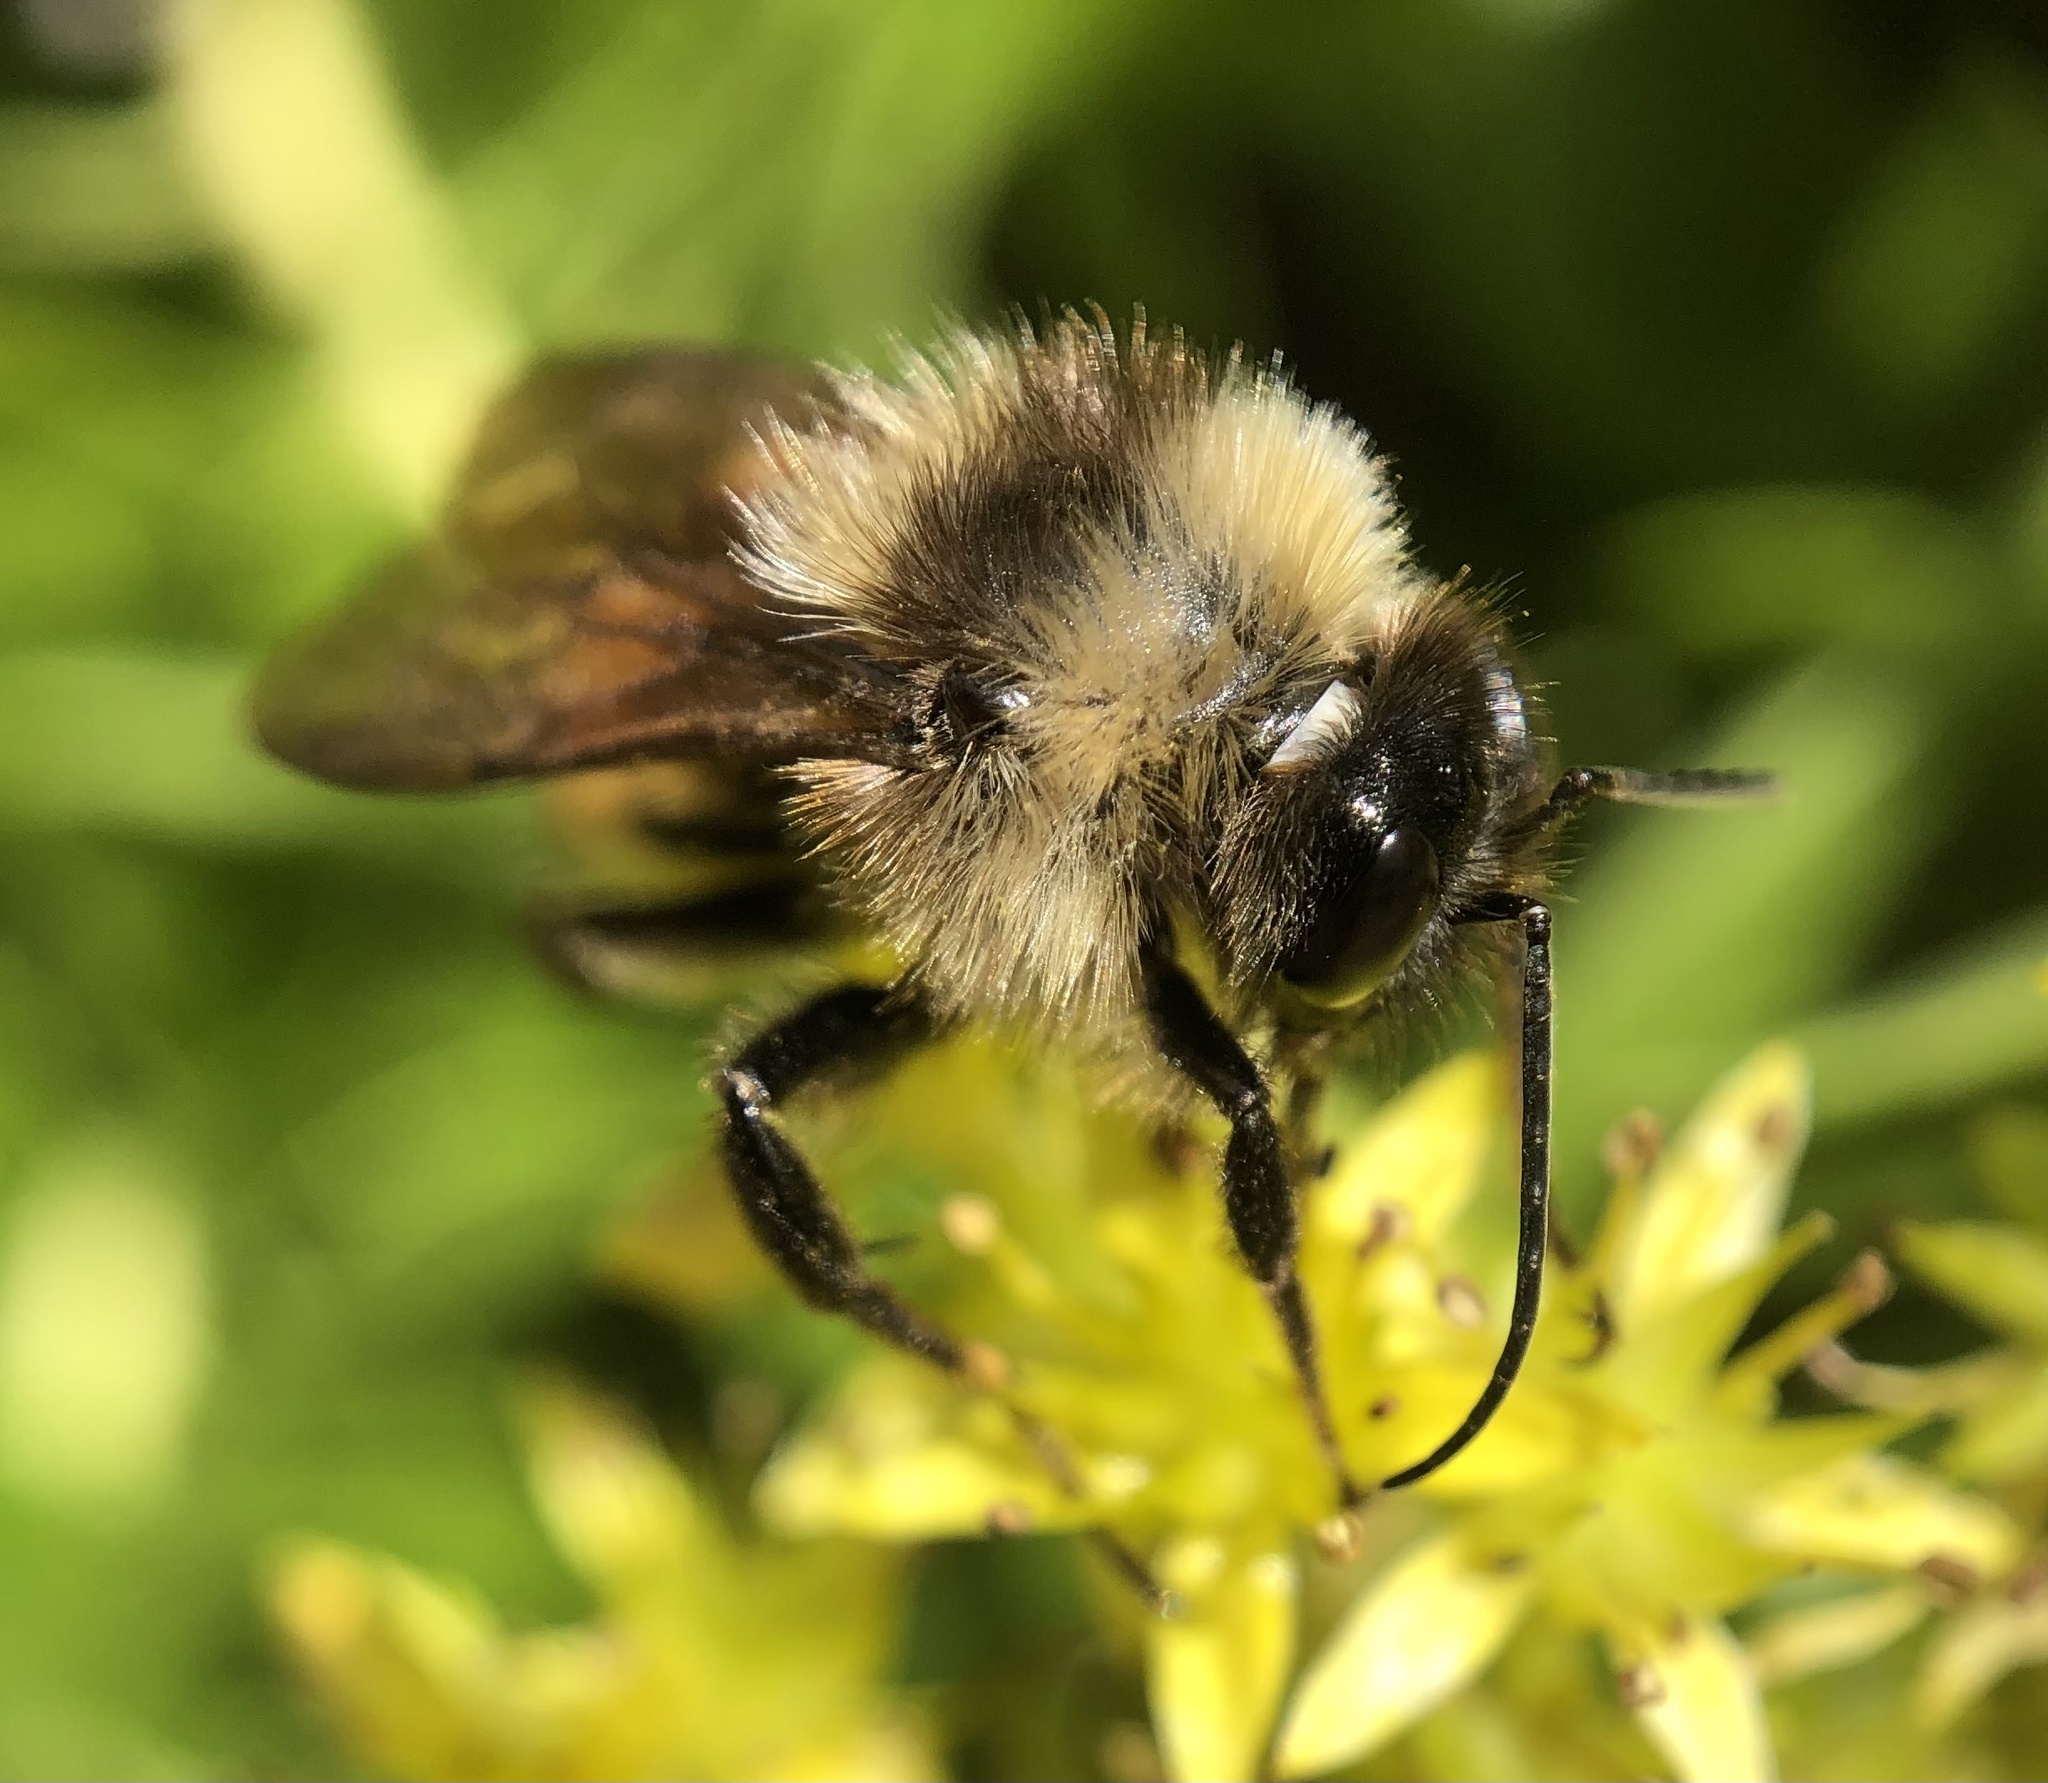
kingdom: Animalia
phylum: Arthropoda
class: Insecta
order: Hymenoptera
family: Apidae
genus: Bombus
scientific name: Bombus pensylvanicus
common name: Bumble bee
